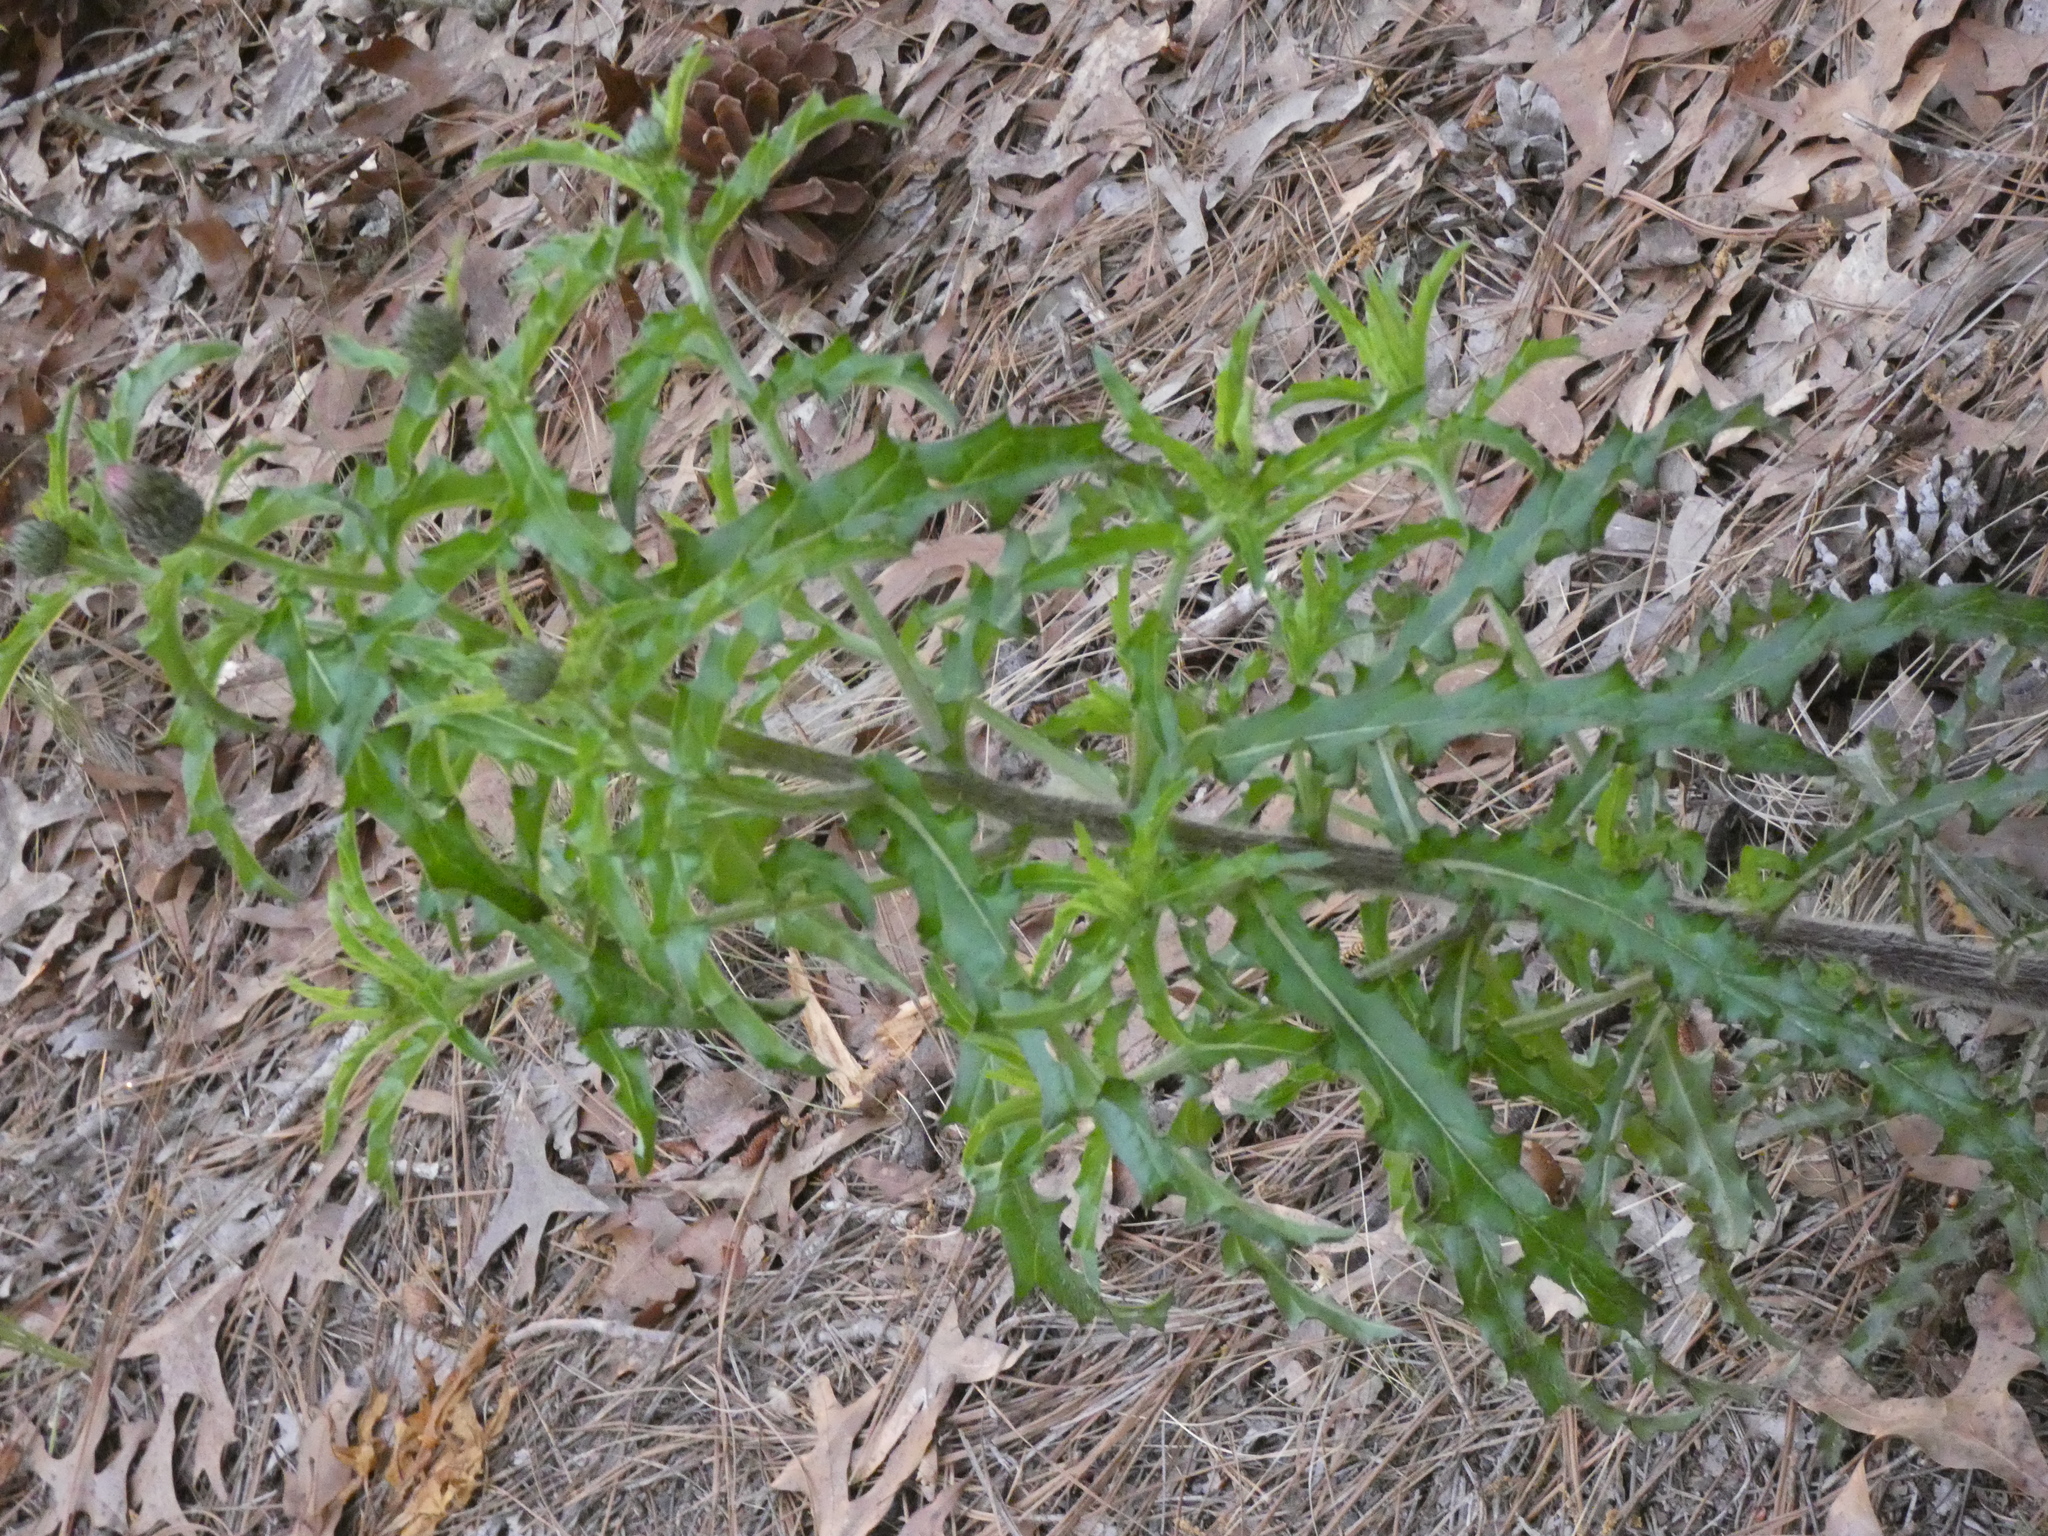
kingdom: Plantae
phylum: Tracheophyta
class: Magnoliopsida
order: Asterales
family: Asteraceae
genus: Cirsium
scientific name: Cirsium repandum
